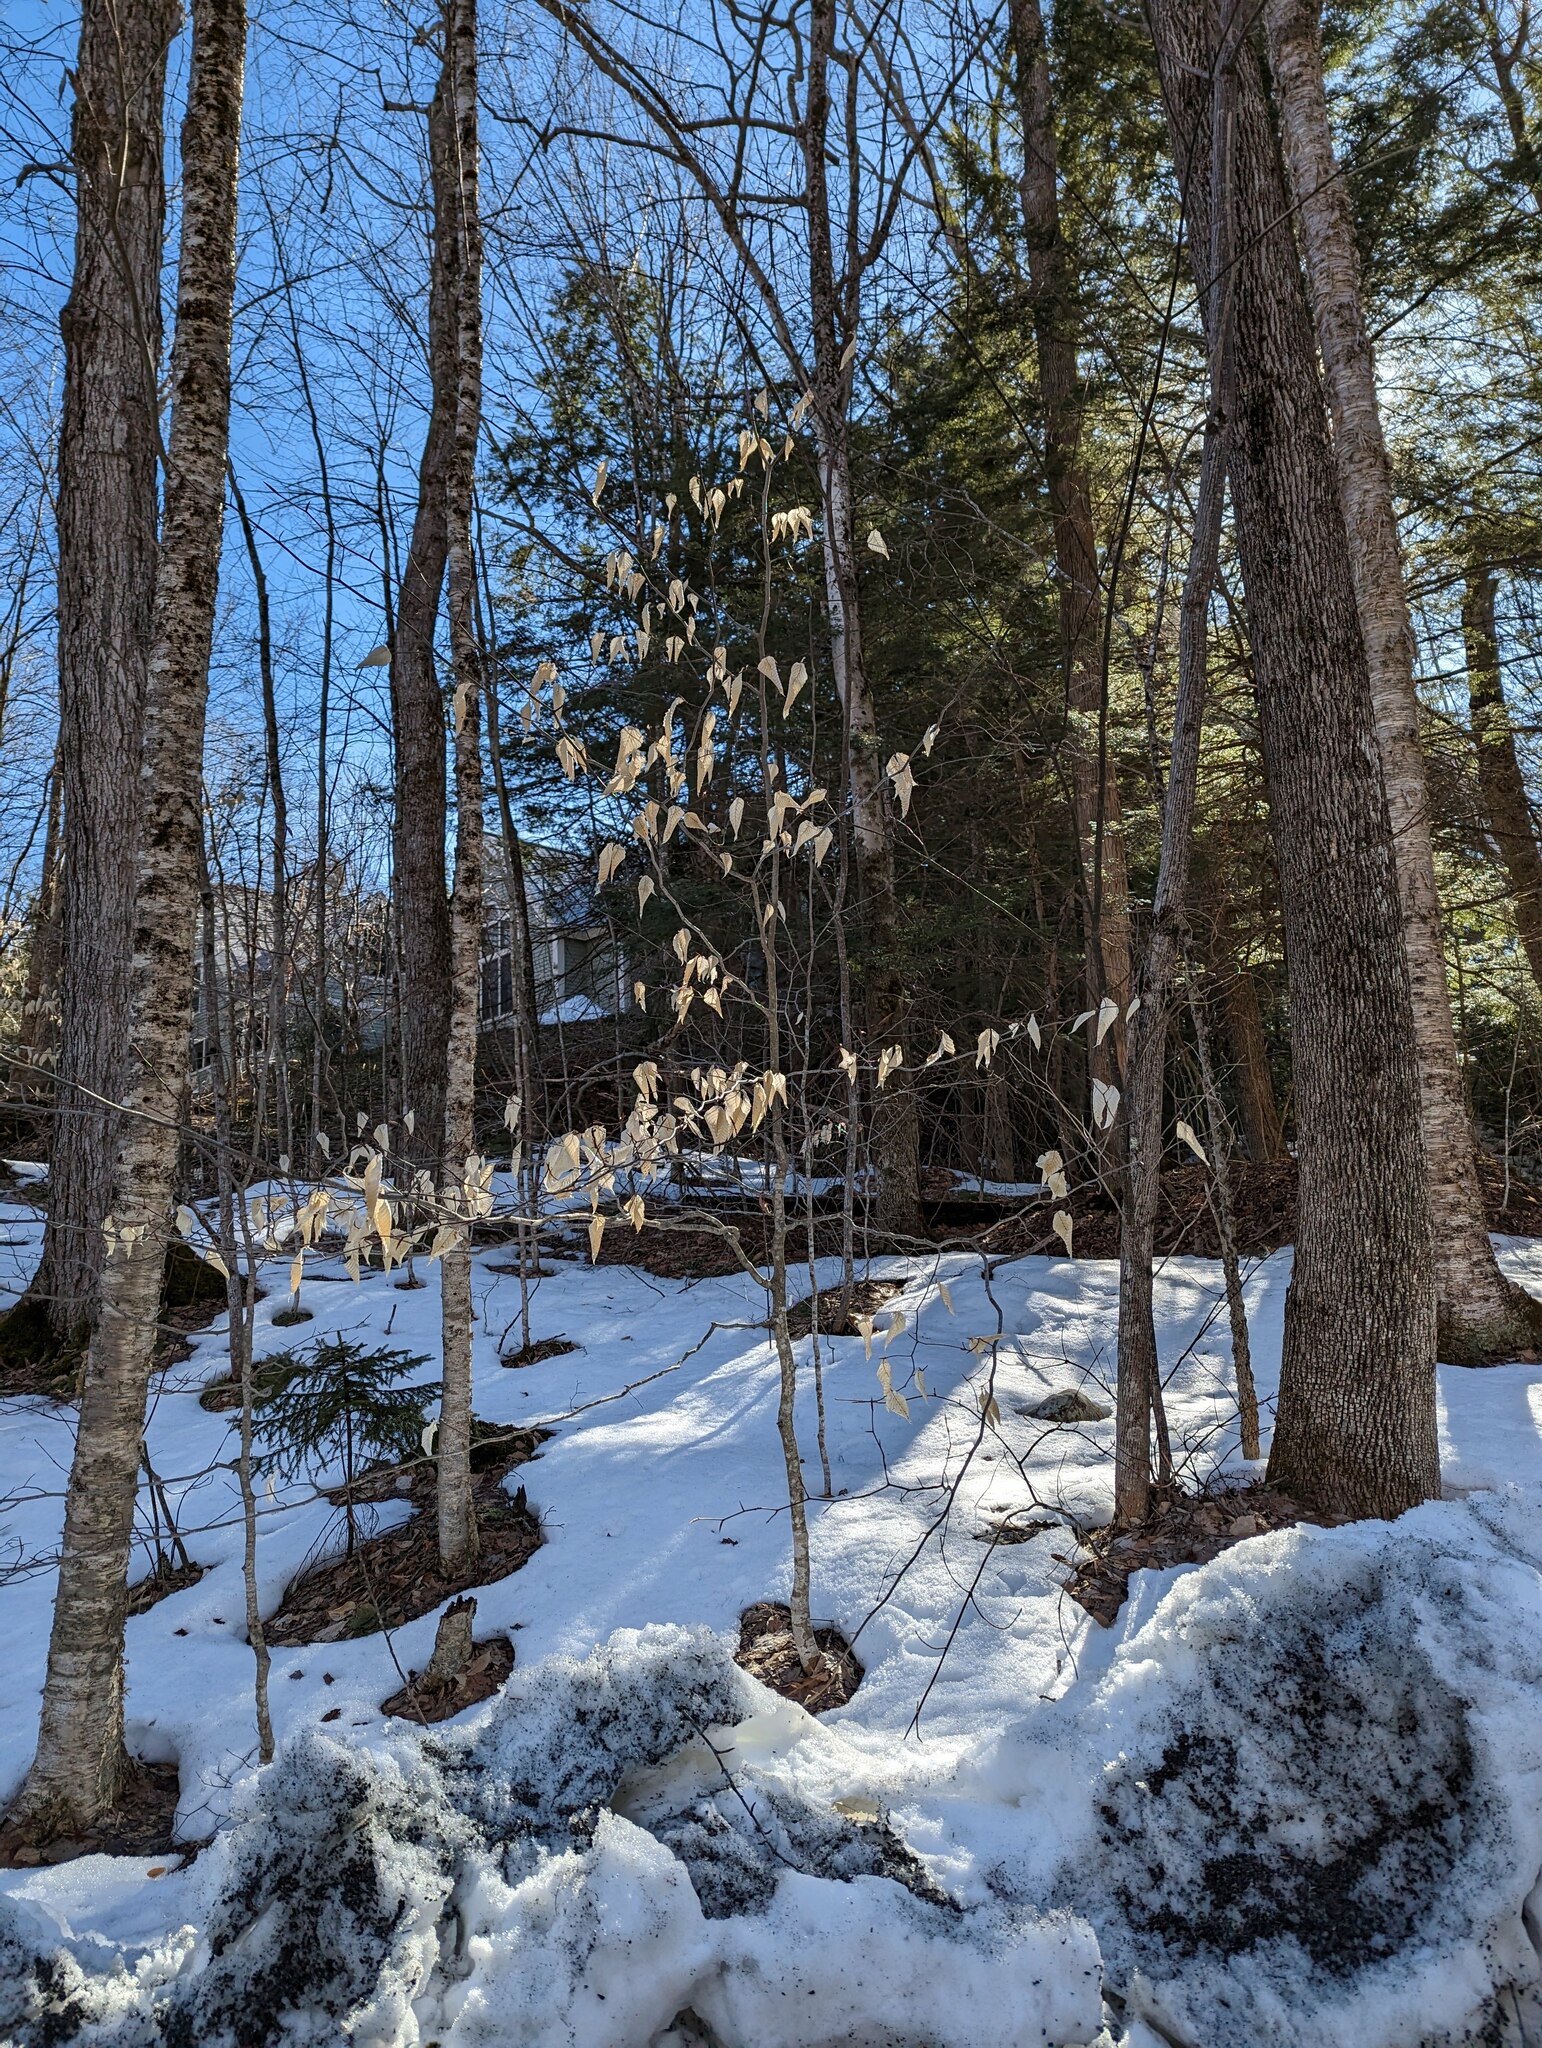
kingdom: Plantae
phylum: Tracheophyta
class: Magnoliopsida
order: Fagales
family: Fagaceae
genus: Fagus
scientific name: Fagus grandifolia
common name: American beech
